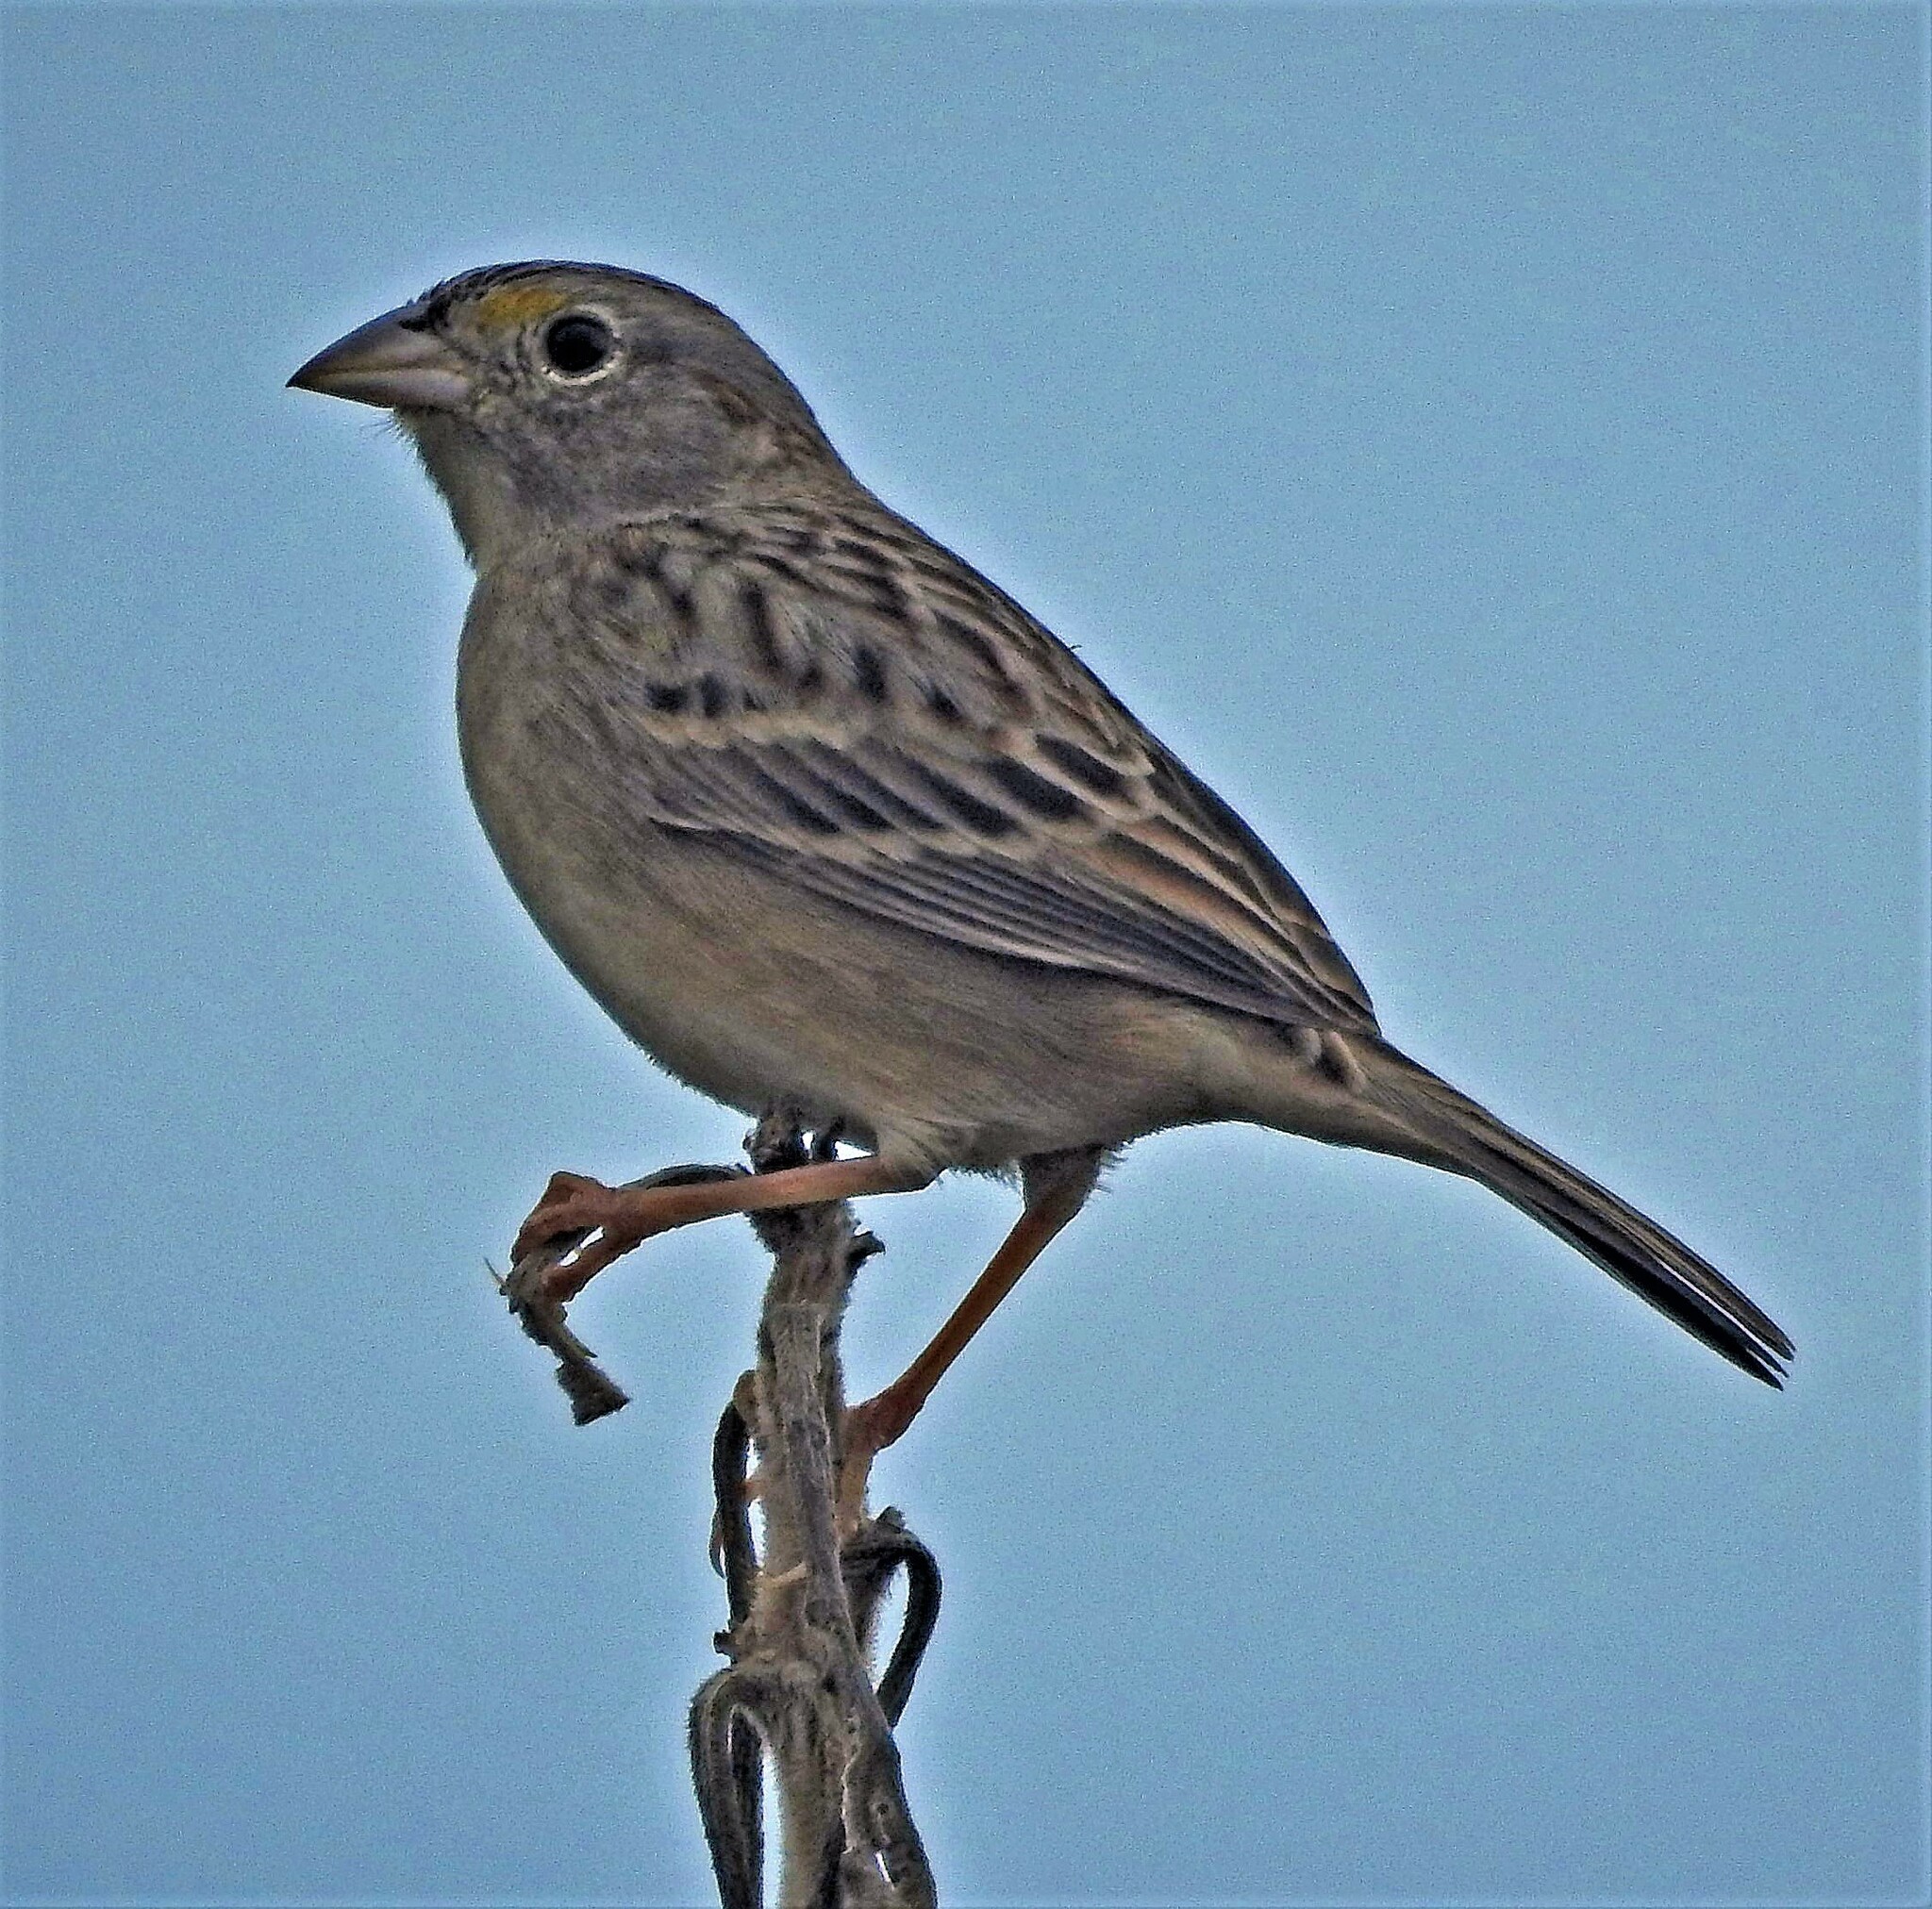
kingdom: Animalia
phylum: Chordata
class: Aves
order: Passeriformes
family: Passerellidae
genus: Ammodramus
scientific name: Ammodramus humeralis
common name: Grassland sparrow
